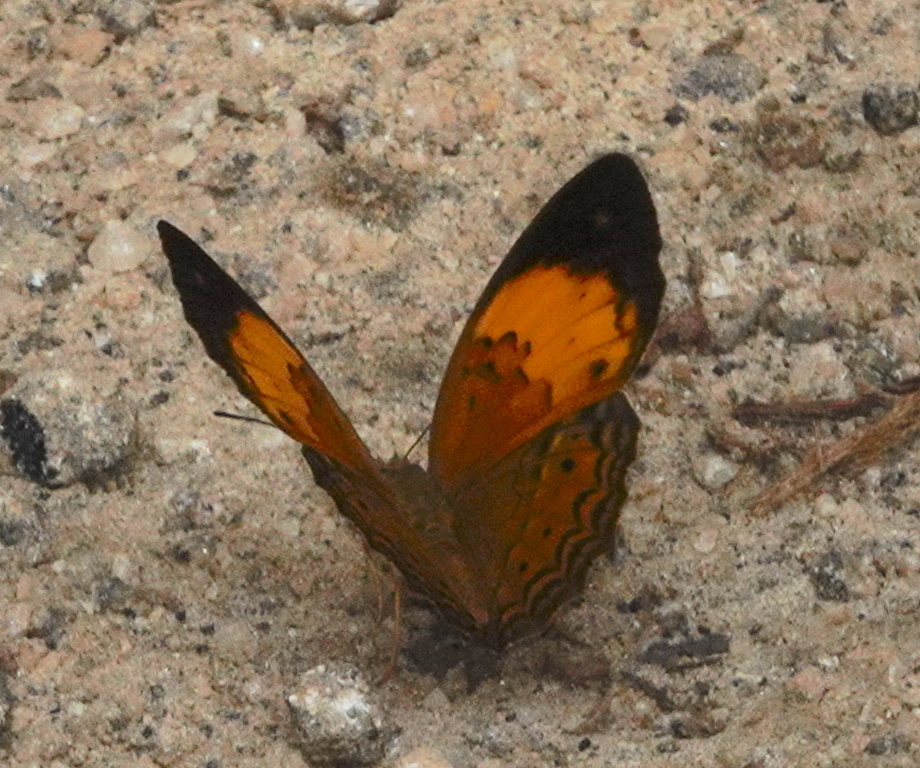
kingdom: Animalia
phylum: Arthropoda
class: Insecta
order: Lepidoptera
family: Nymphalidae
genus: Cirrochroa
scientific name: Cirrochroa thais
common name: Tamil yeoman
